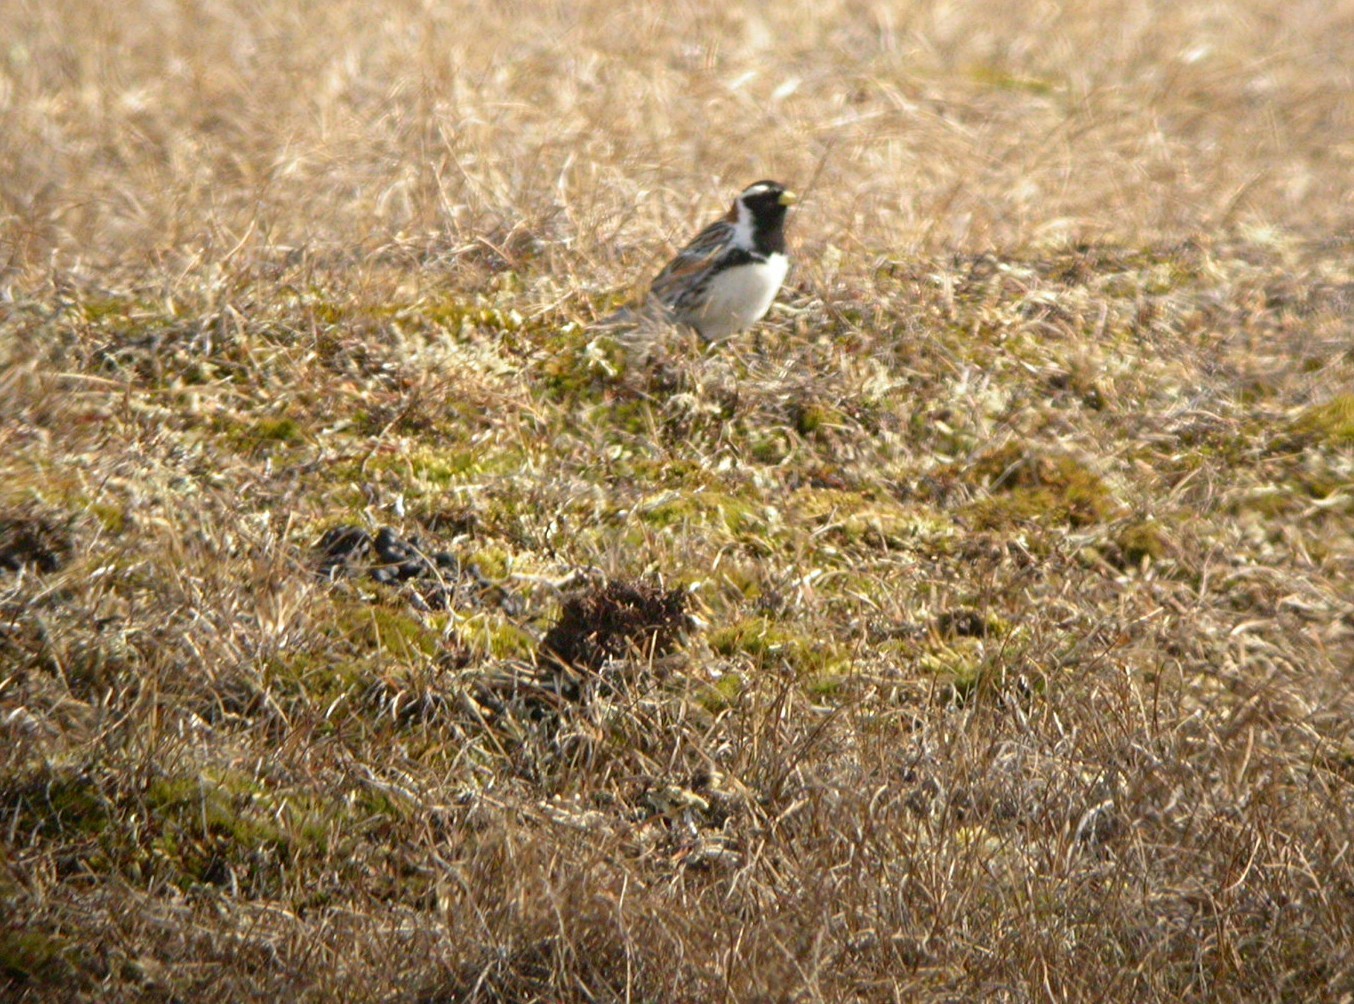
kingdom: Animalia
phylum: Chordata
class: Aves
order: Passeriformes
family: Calcariidae
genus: Calcarius
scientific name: Calcarius lapponicus
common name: Lapland longspur
